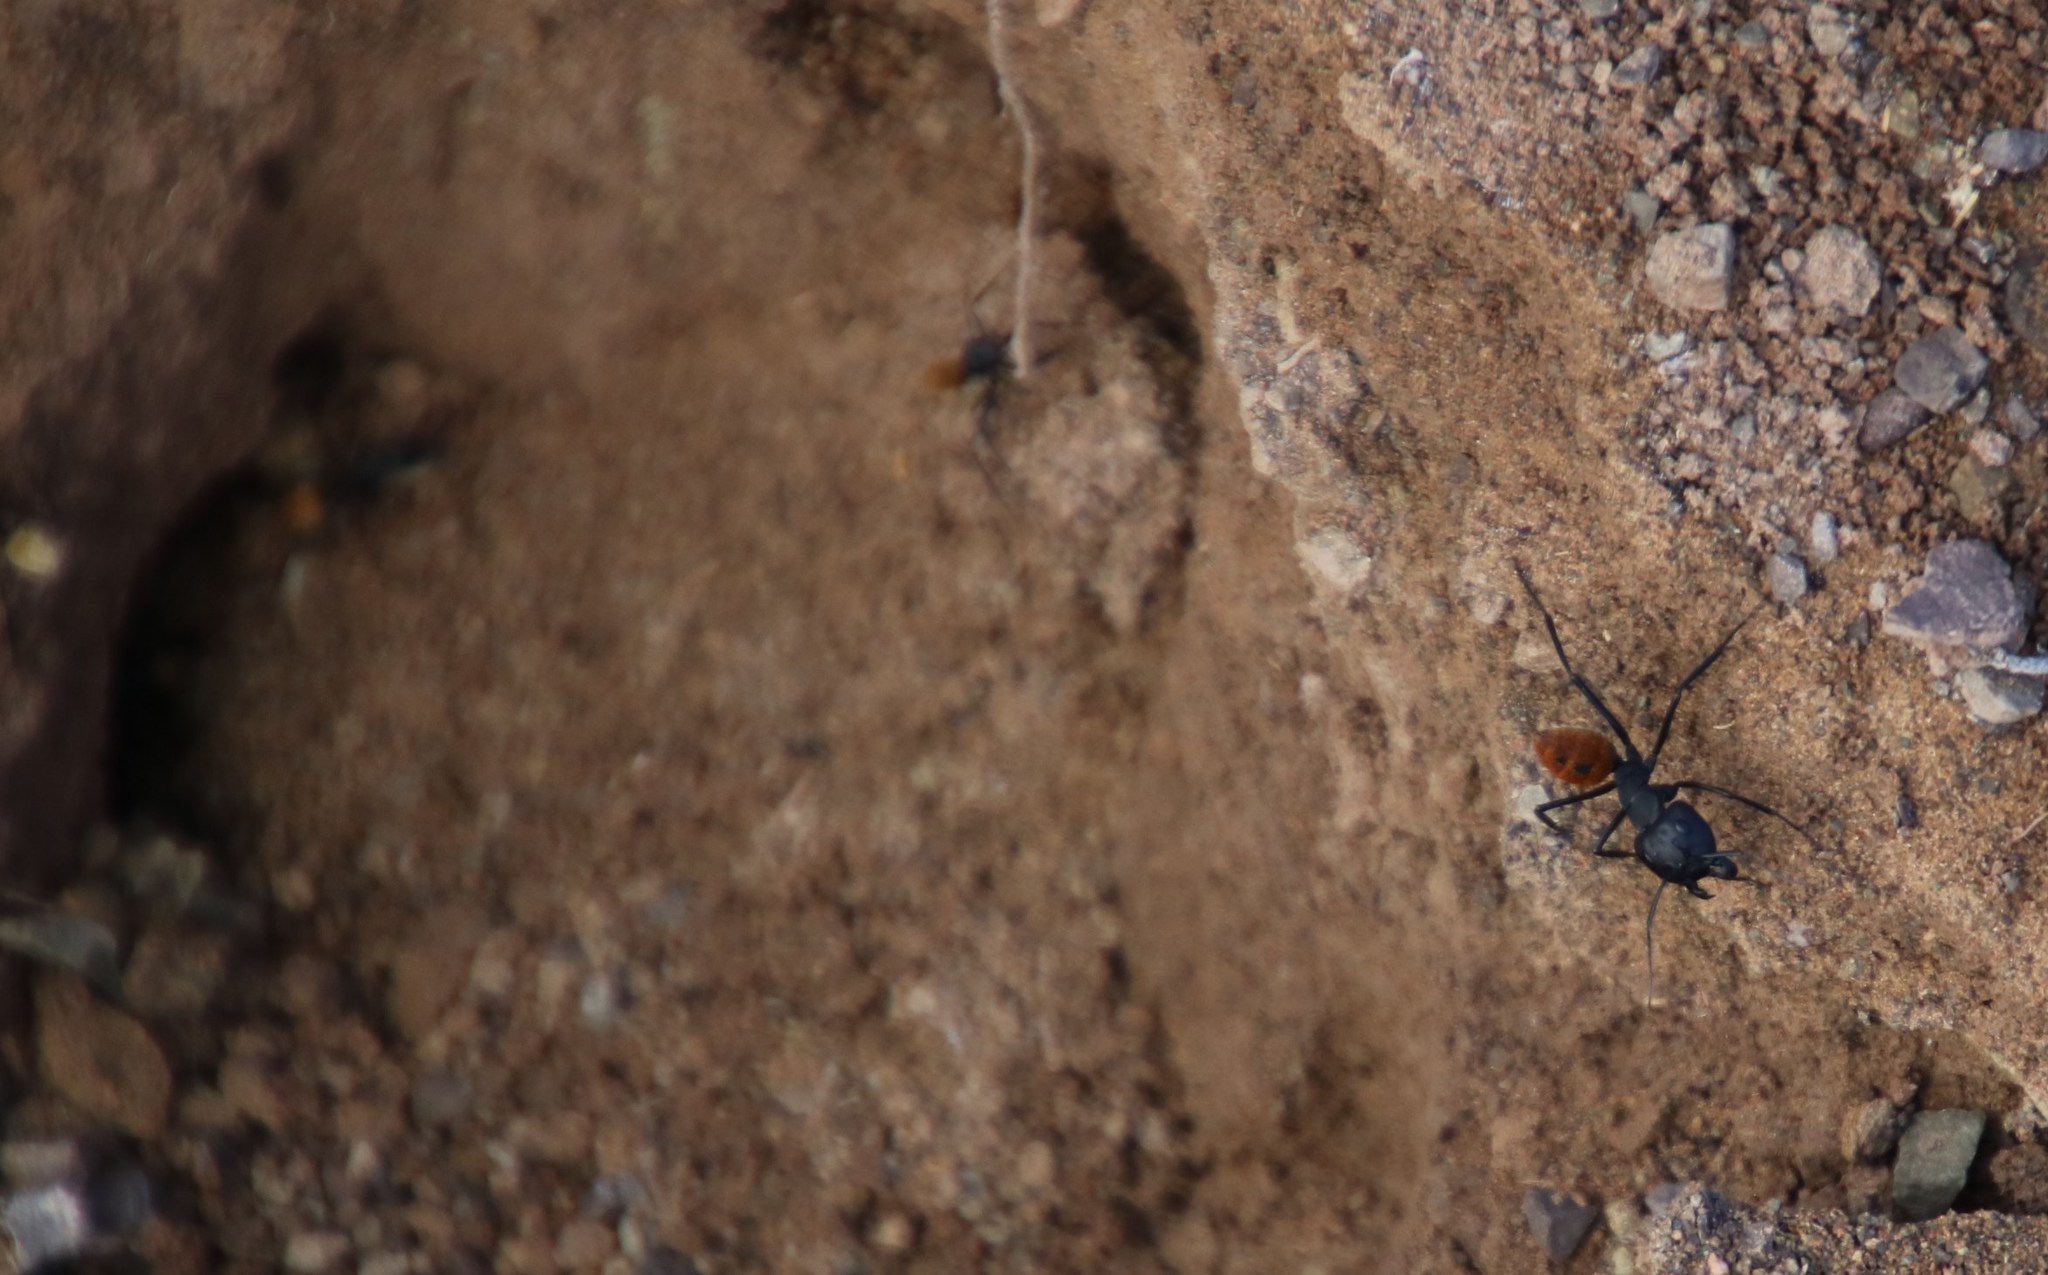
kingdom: Animalia
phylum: Arthropoda
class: Insecta
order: Hymenoptera
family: Formicidae
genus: Camponotus
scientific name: Camponotus fulvopilosus
